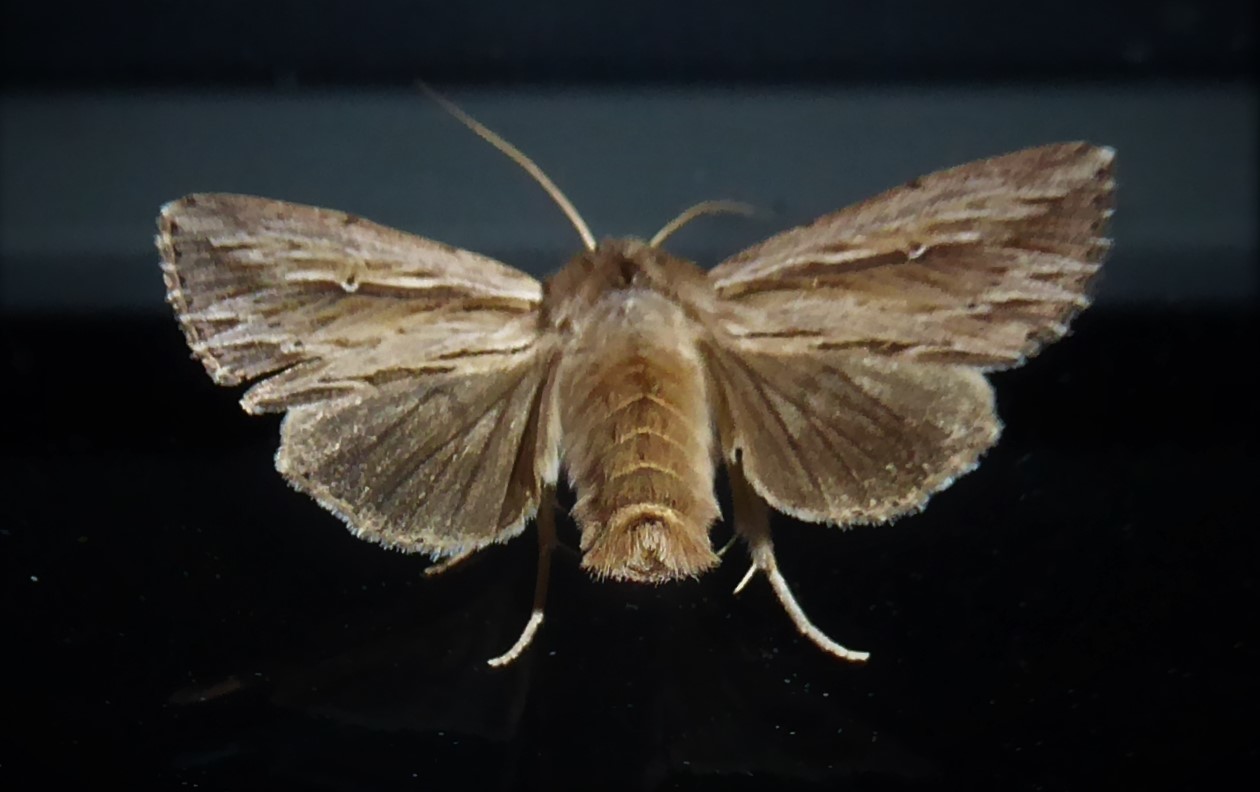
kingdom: Animalia
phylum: Arthropoda
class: Insecta
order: Lepidoptera
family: Noctuidae
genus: Persectania
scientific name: Persectania aversa
